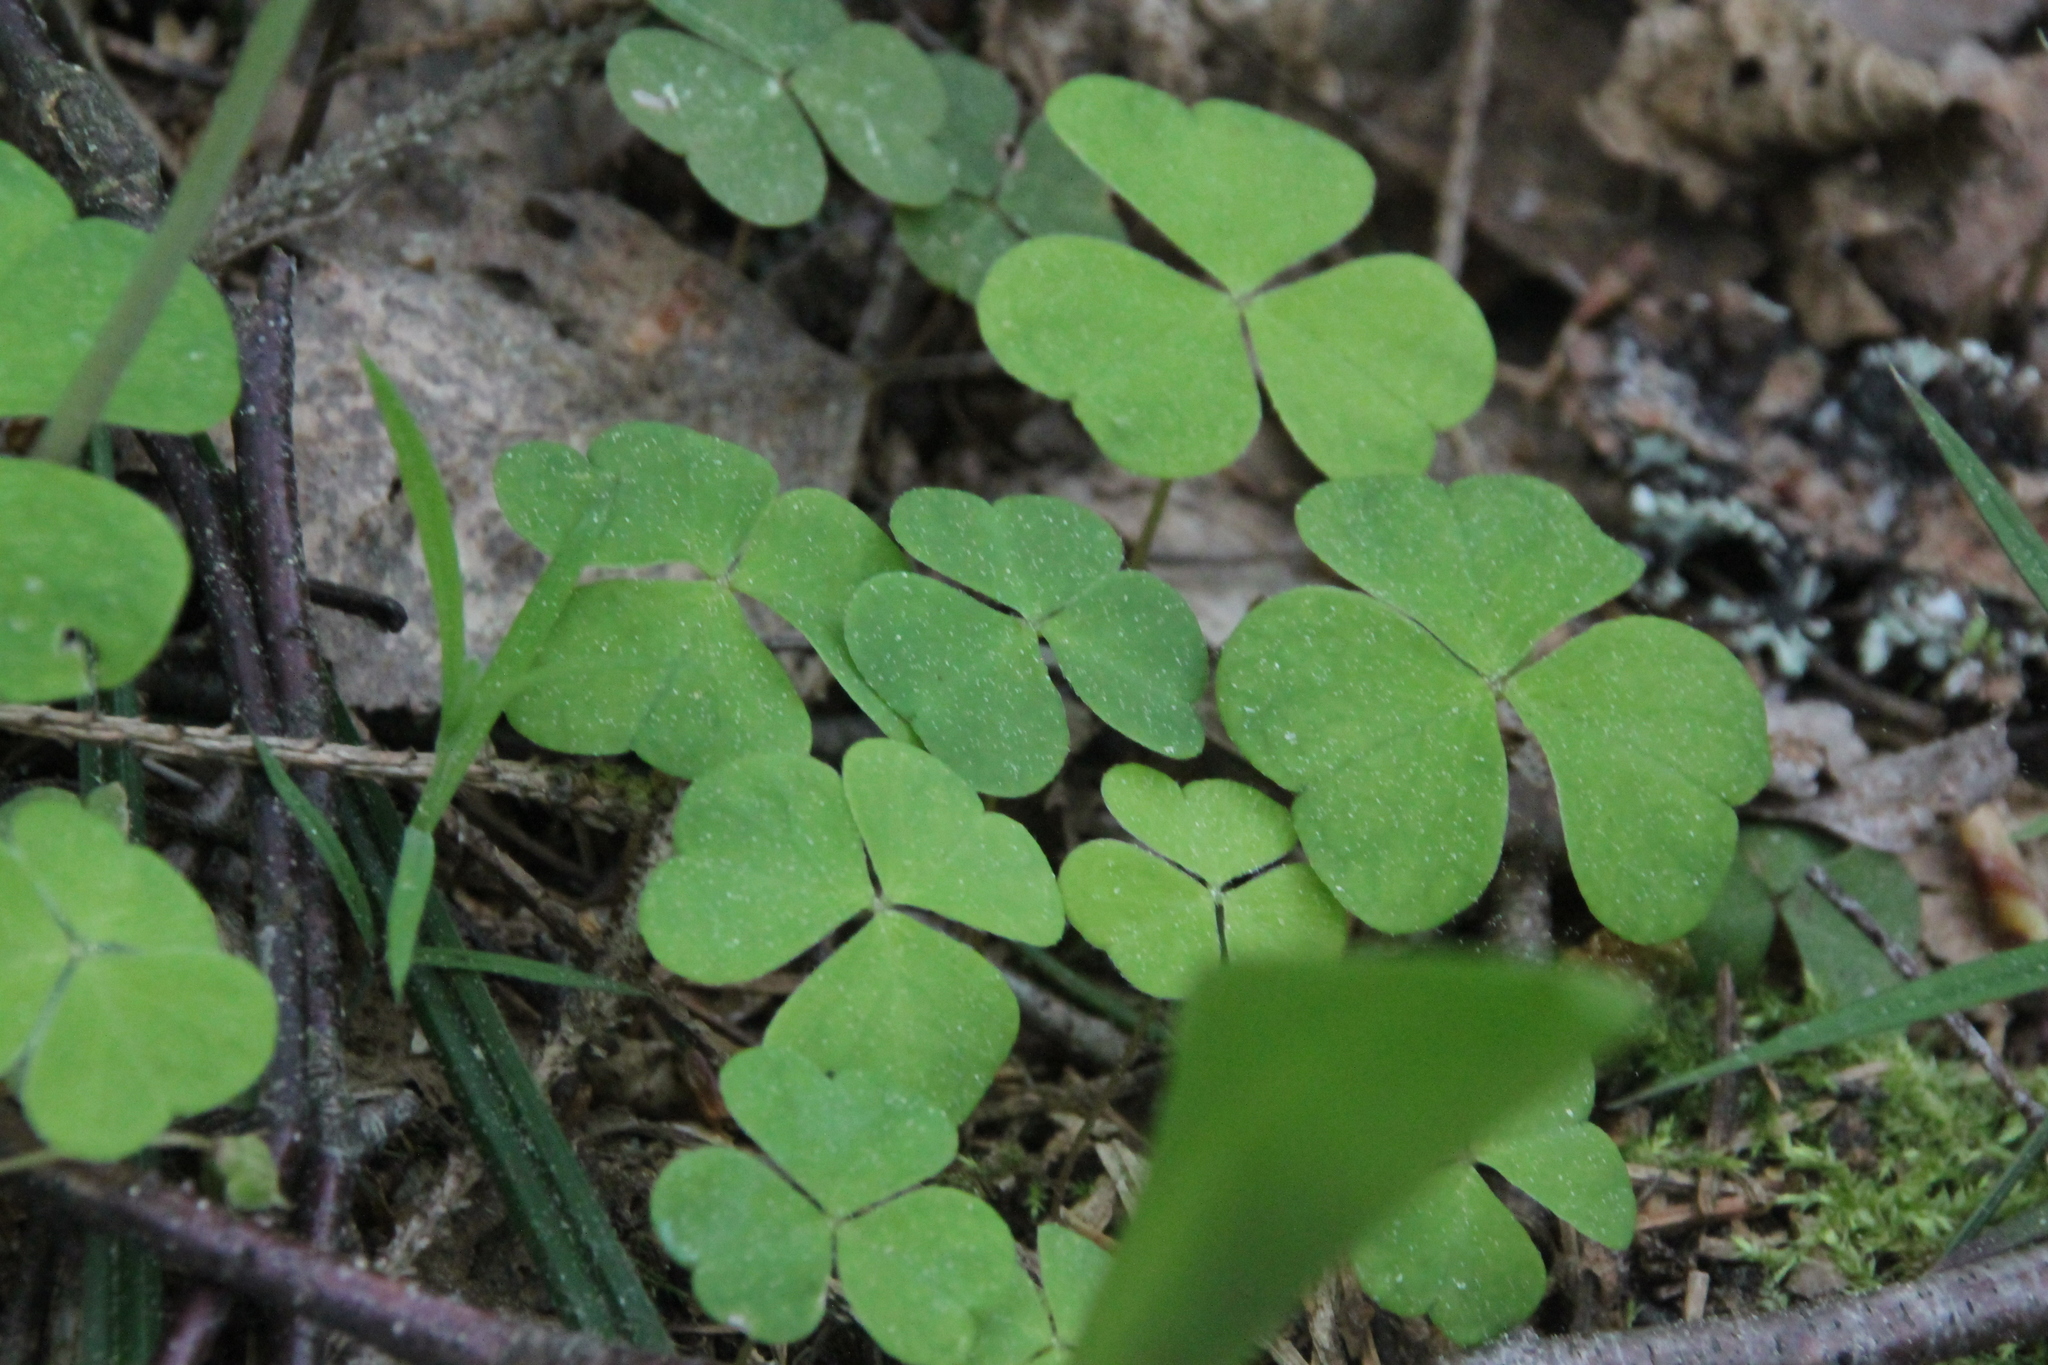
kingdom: Plantae
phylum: Tracheophyta
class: Magnoliopsida
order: Oxalidales
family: Oxalidaceae
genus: Oxalis
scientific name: Oxalis acetosella
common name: Wood-sorrel
